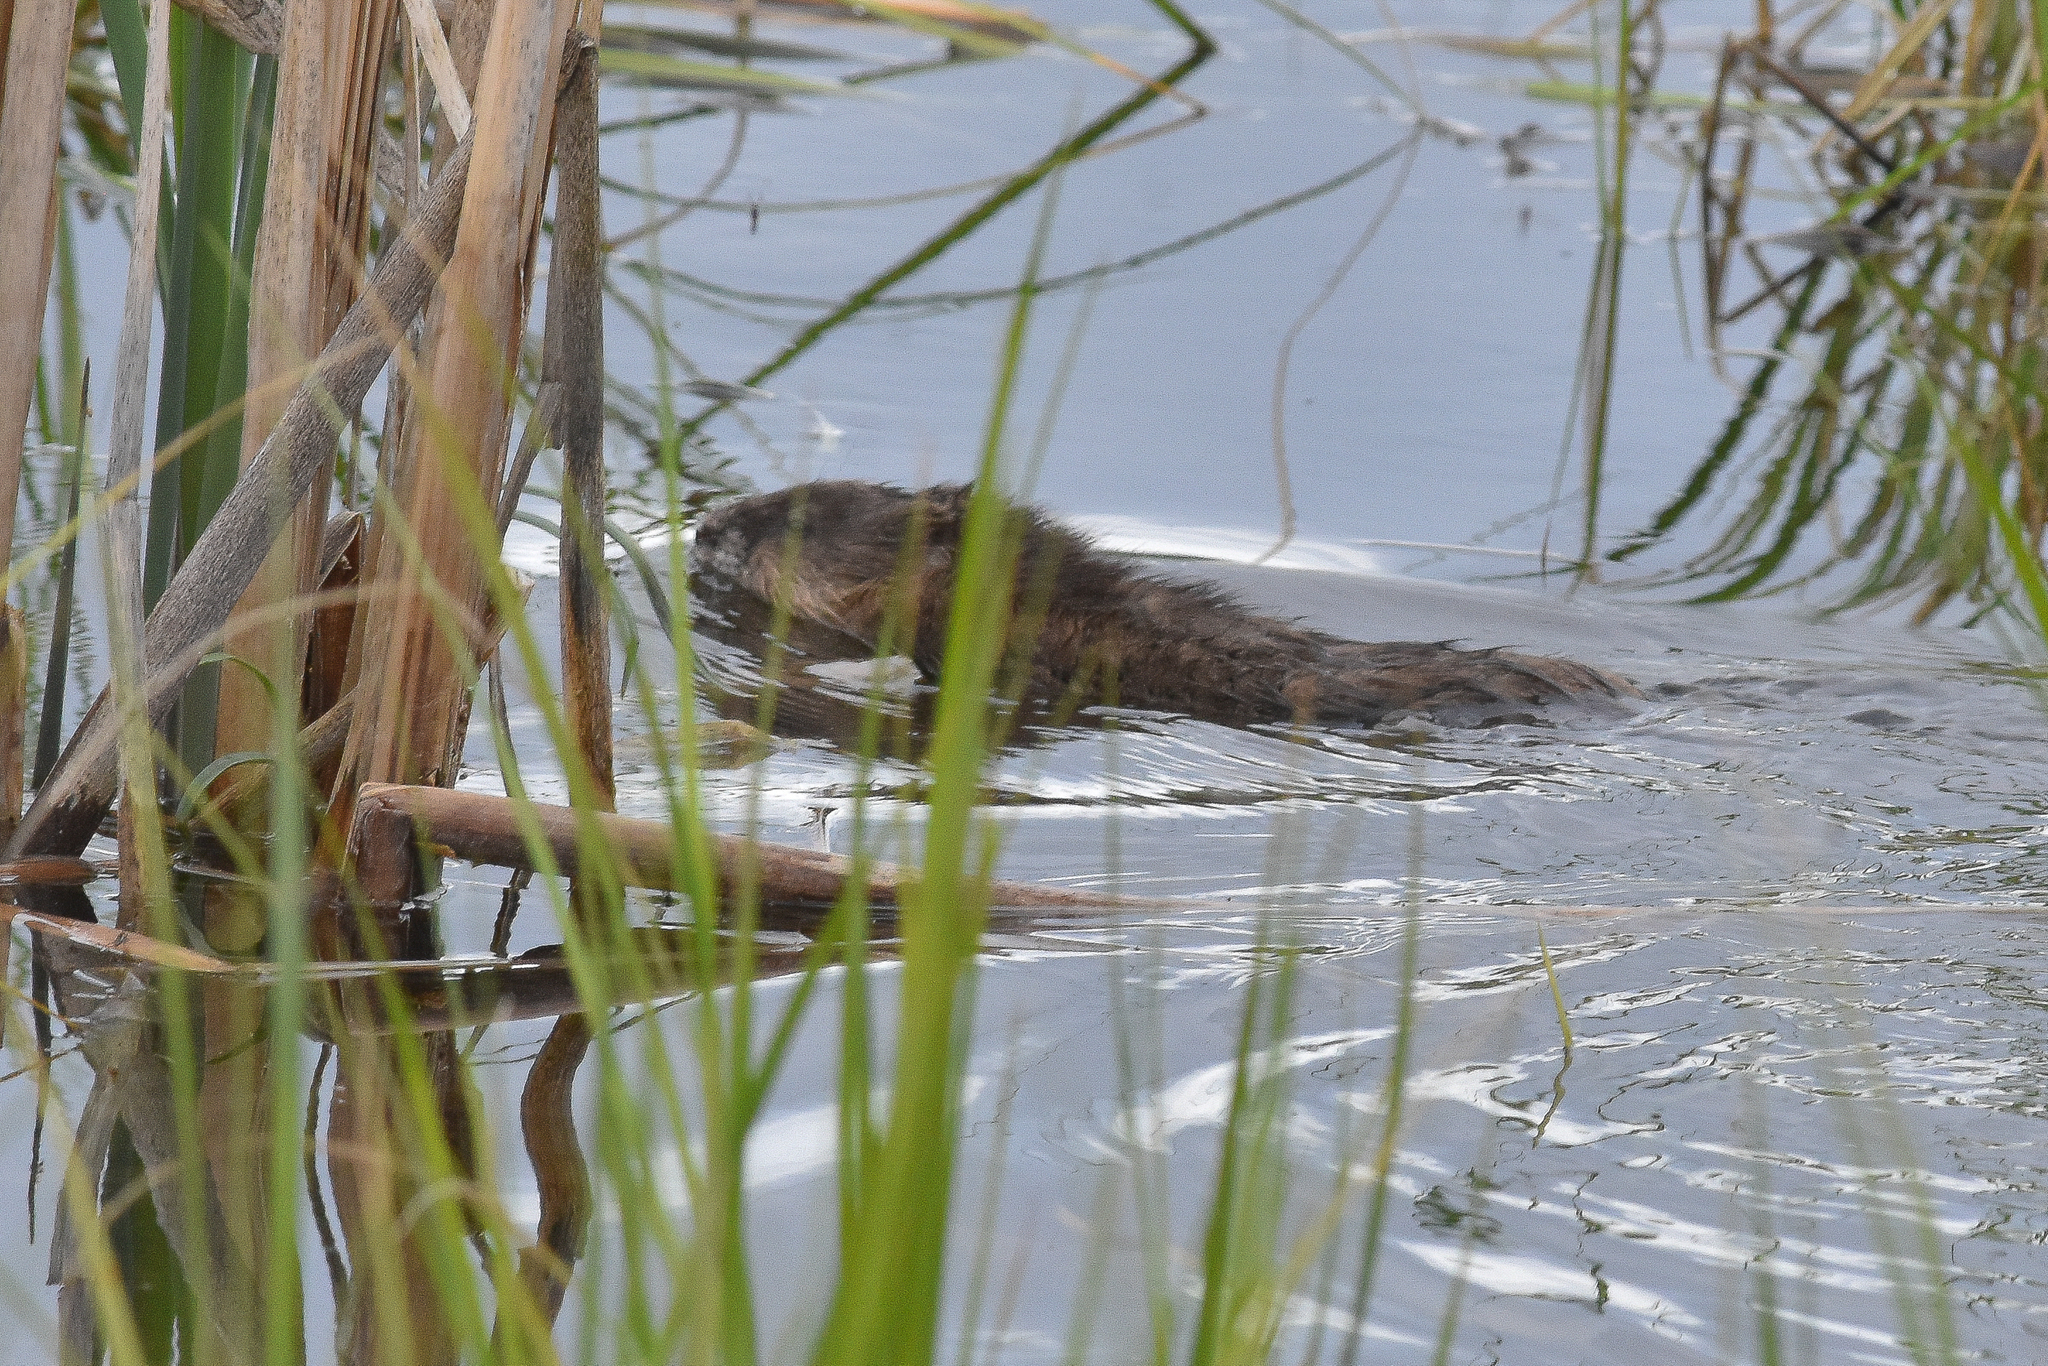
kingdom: Animalia
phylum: Chordata
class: Mammalia
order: Rodentia
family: Cricetidae
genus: Ondatra
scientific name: Ondatra zibethicus
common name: Muskrat
